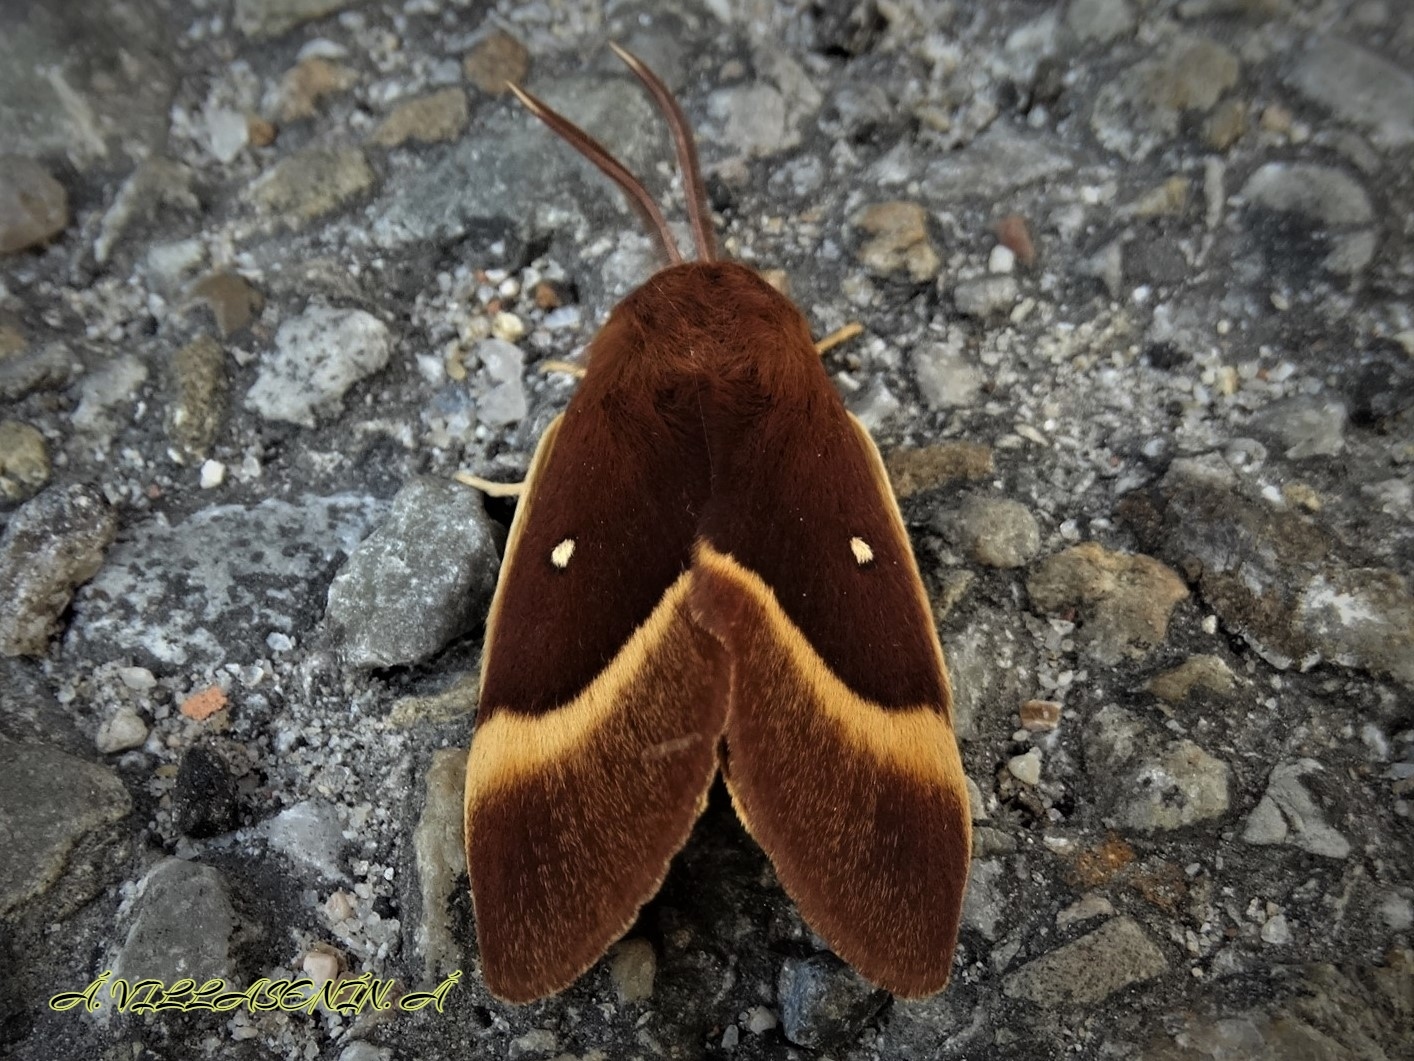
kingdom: Animalia
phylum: Arthropoda
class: Insecta
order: Lepidoptera
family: Lasiocampidae
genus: Lasiocampa
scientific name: Lasiocampa quercus
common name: Oak eggar
